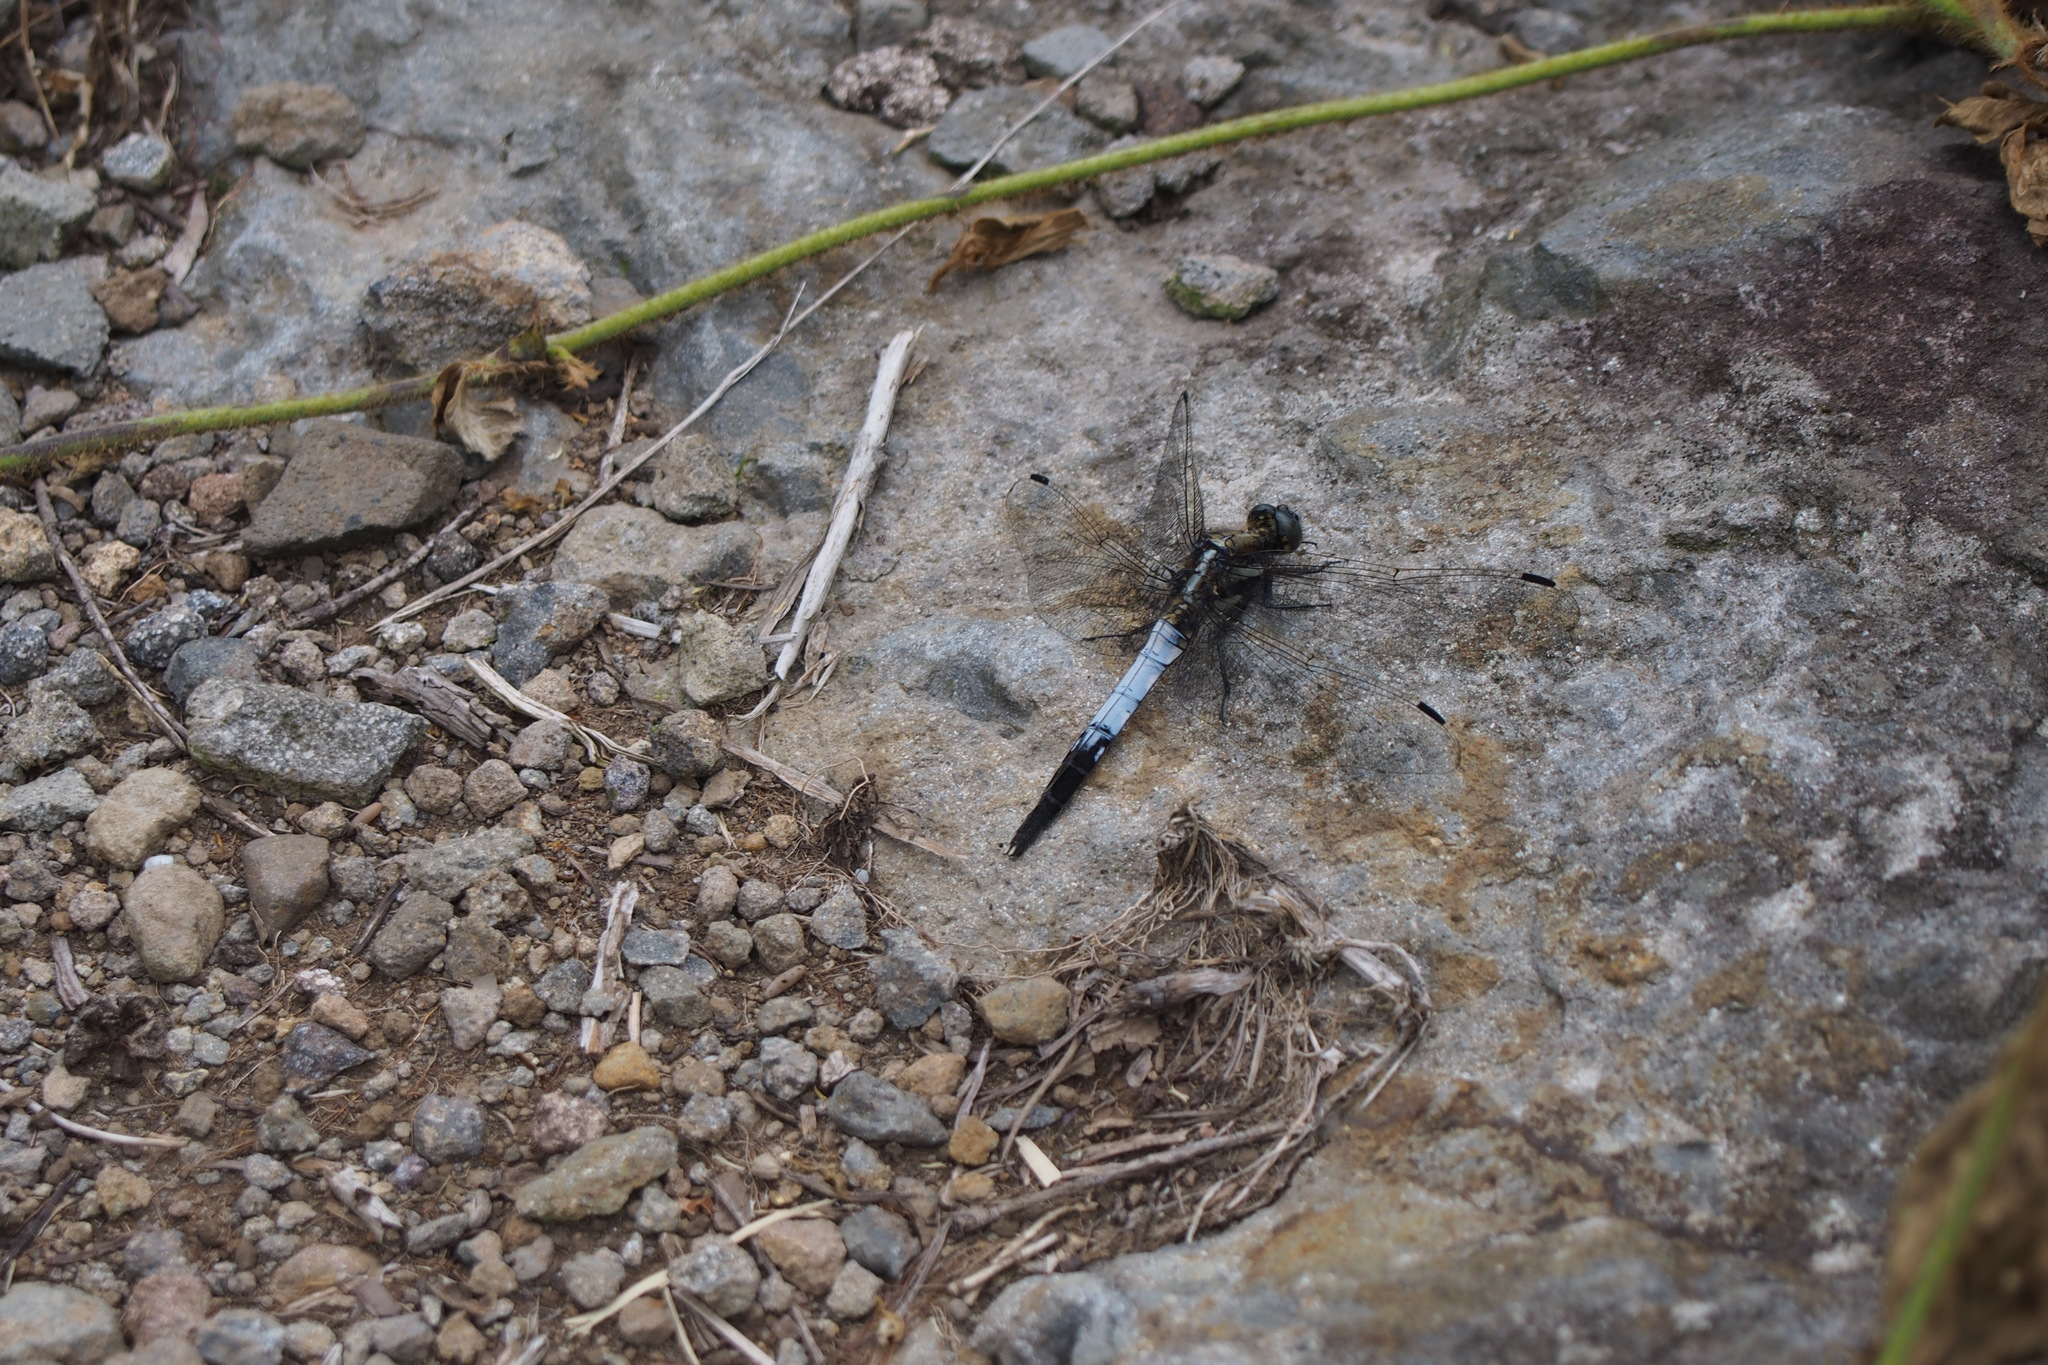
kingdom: Animalia
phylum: Arthropoda
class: Insecta
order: Odonata
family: Libellulidae
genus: Orthetrum
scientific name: Orthetrum albistylum
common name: White-tailed skimmer
